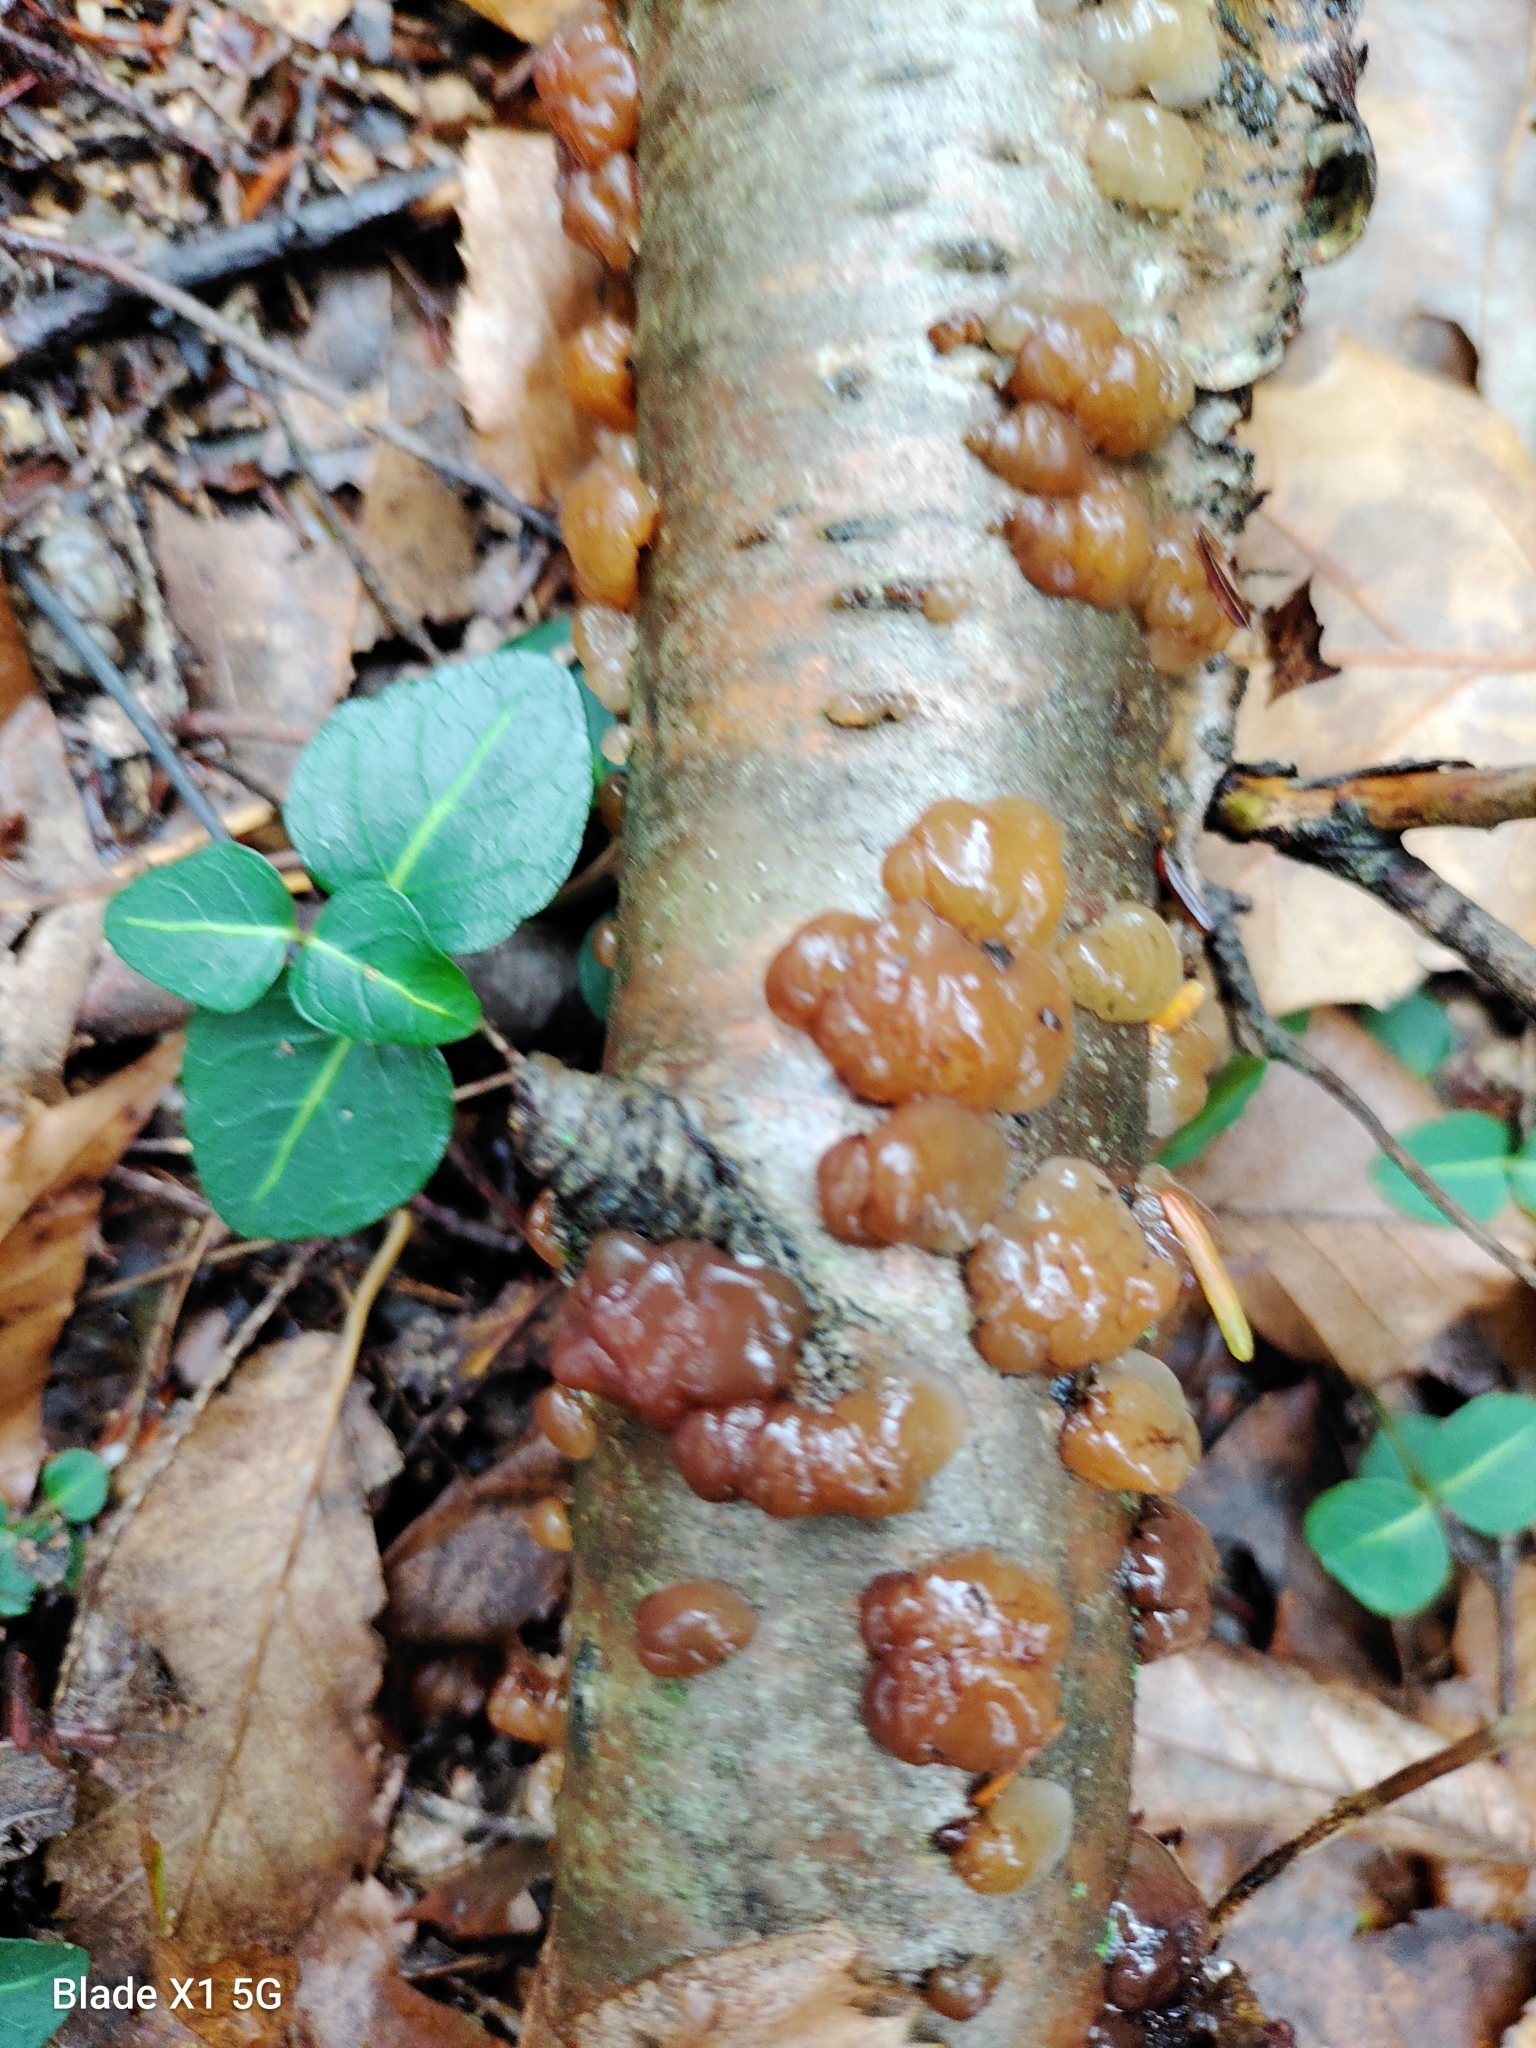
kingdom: Fungi
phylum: Basidiomycota
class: Agaricomycetes
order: Auriculariales
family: Auriculariaceae
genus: Exidia
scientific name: Exidia repanda
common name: Birch jelly
